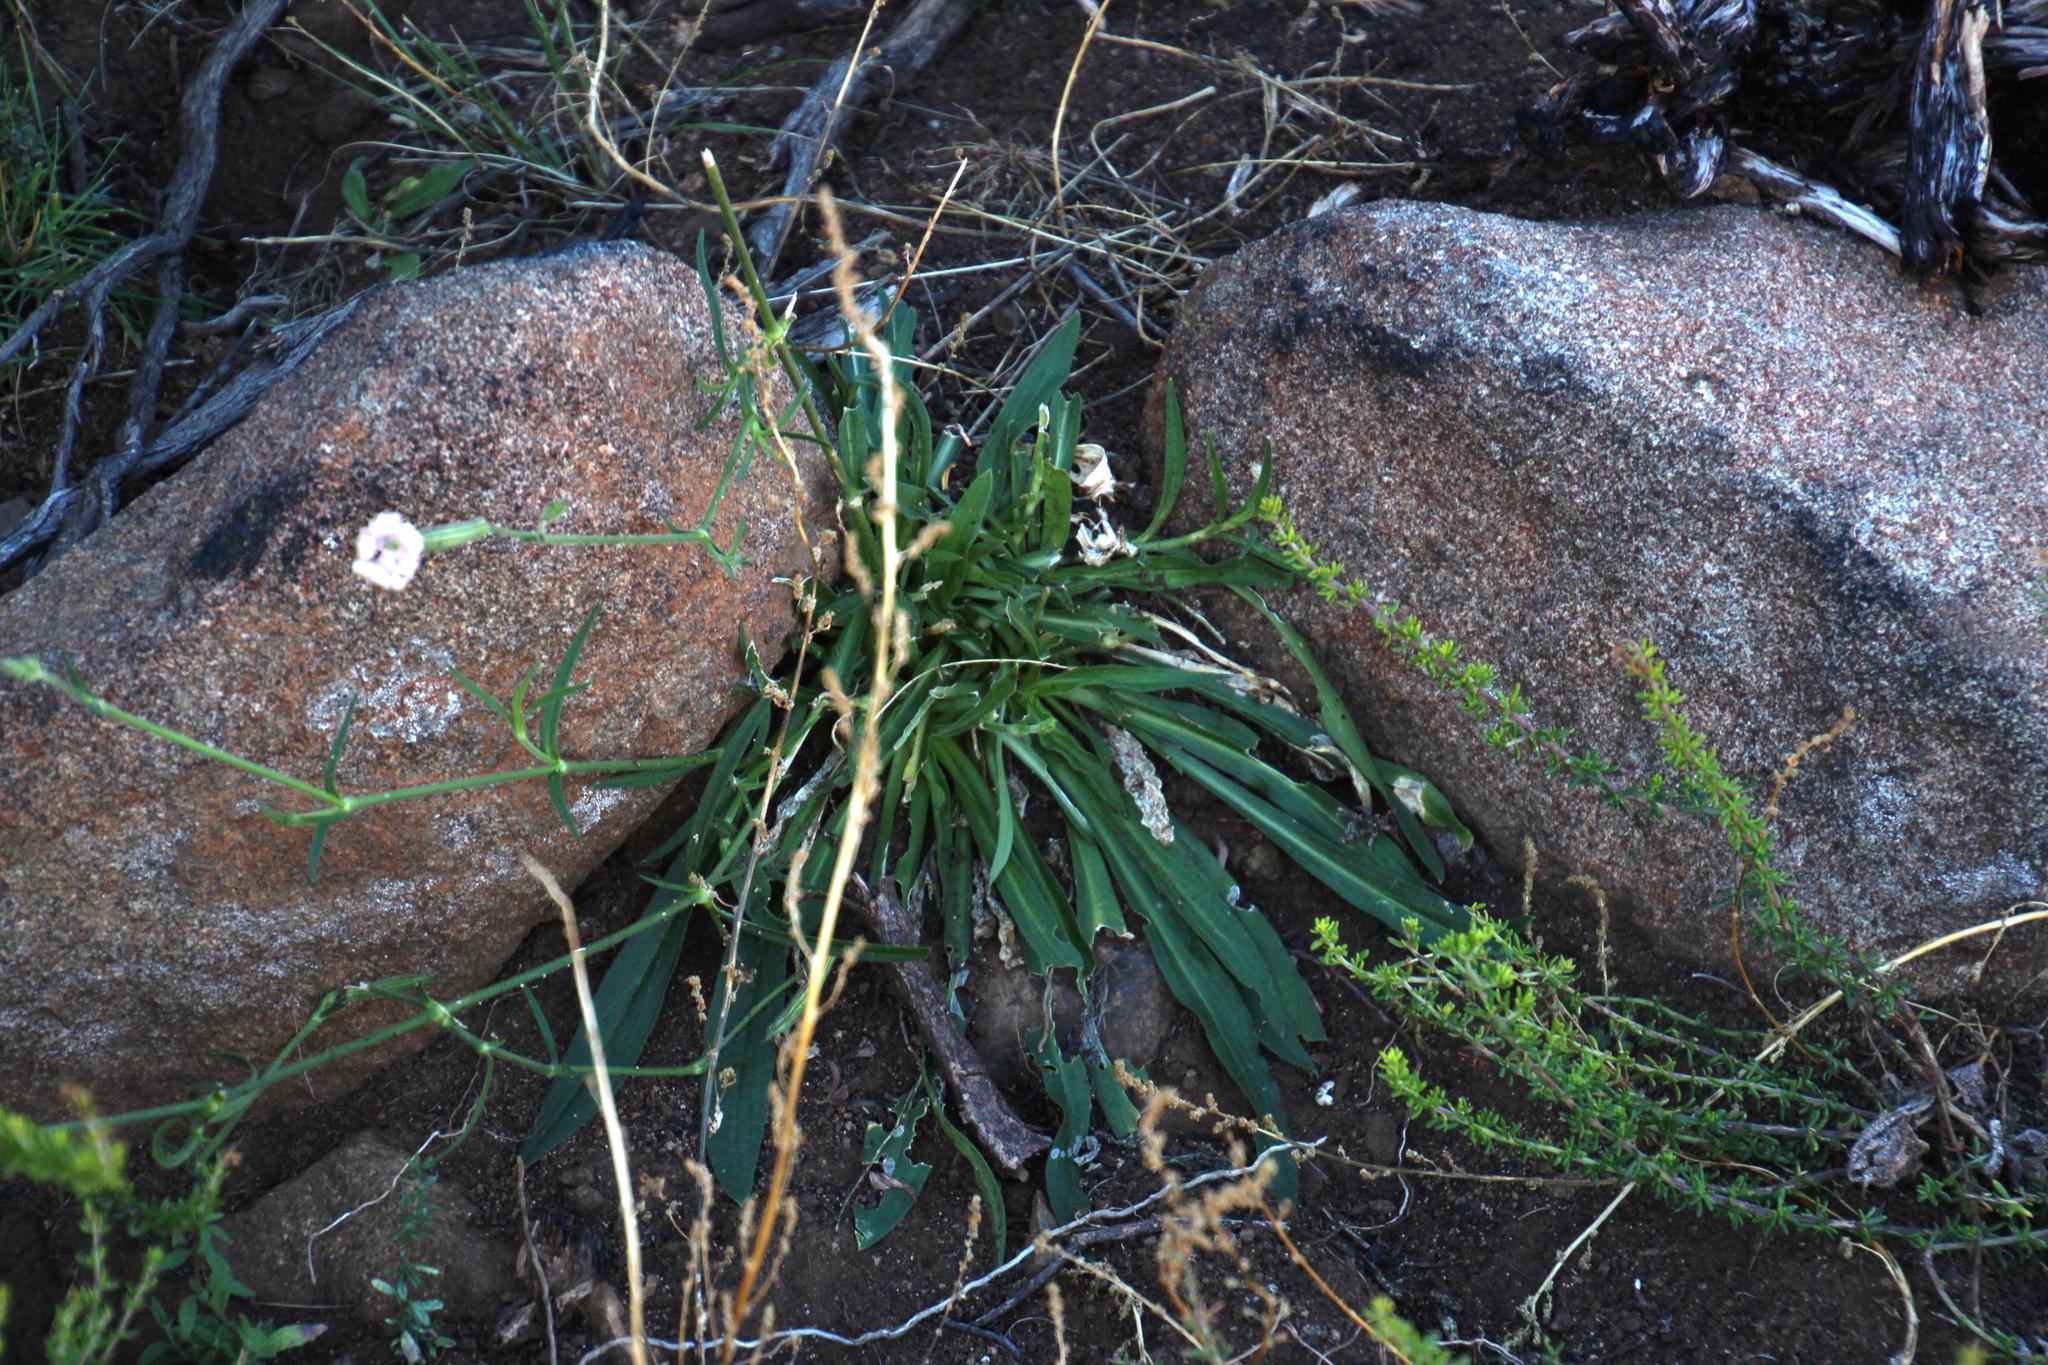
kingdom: Plantae
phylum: Tracheophyta
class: Magnoliopsida
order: Caryophyllales
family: Caryophyllaceae
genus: Silene
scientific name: Silene undulata
